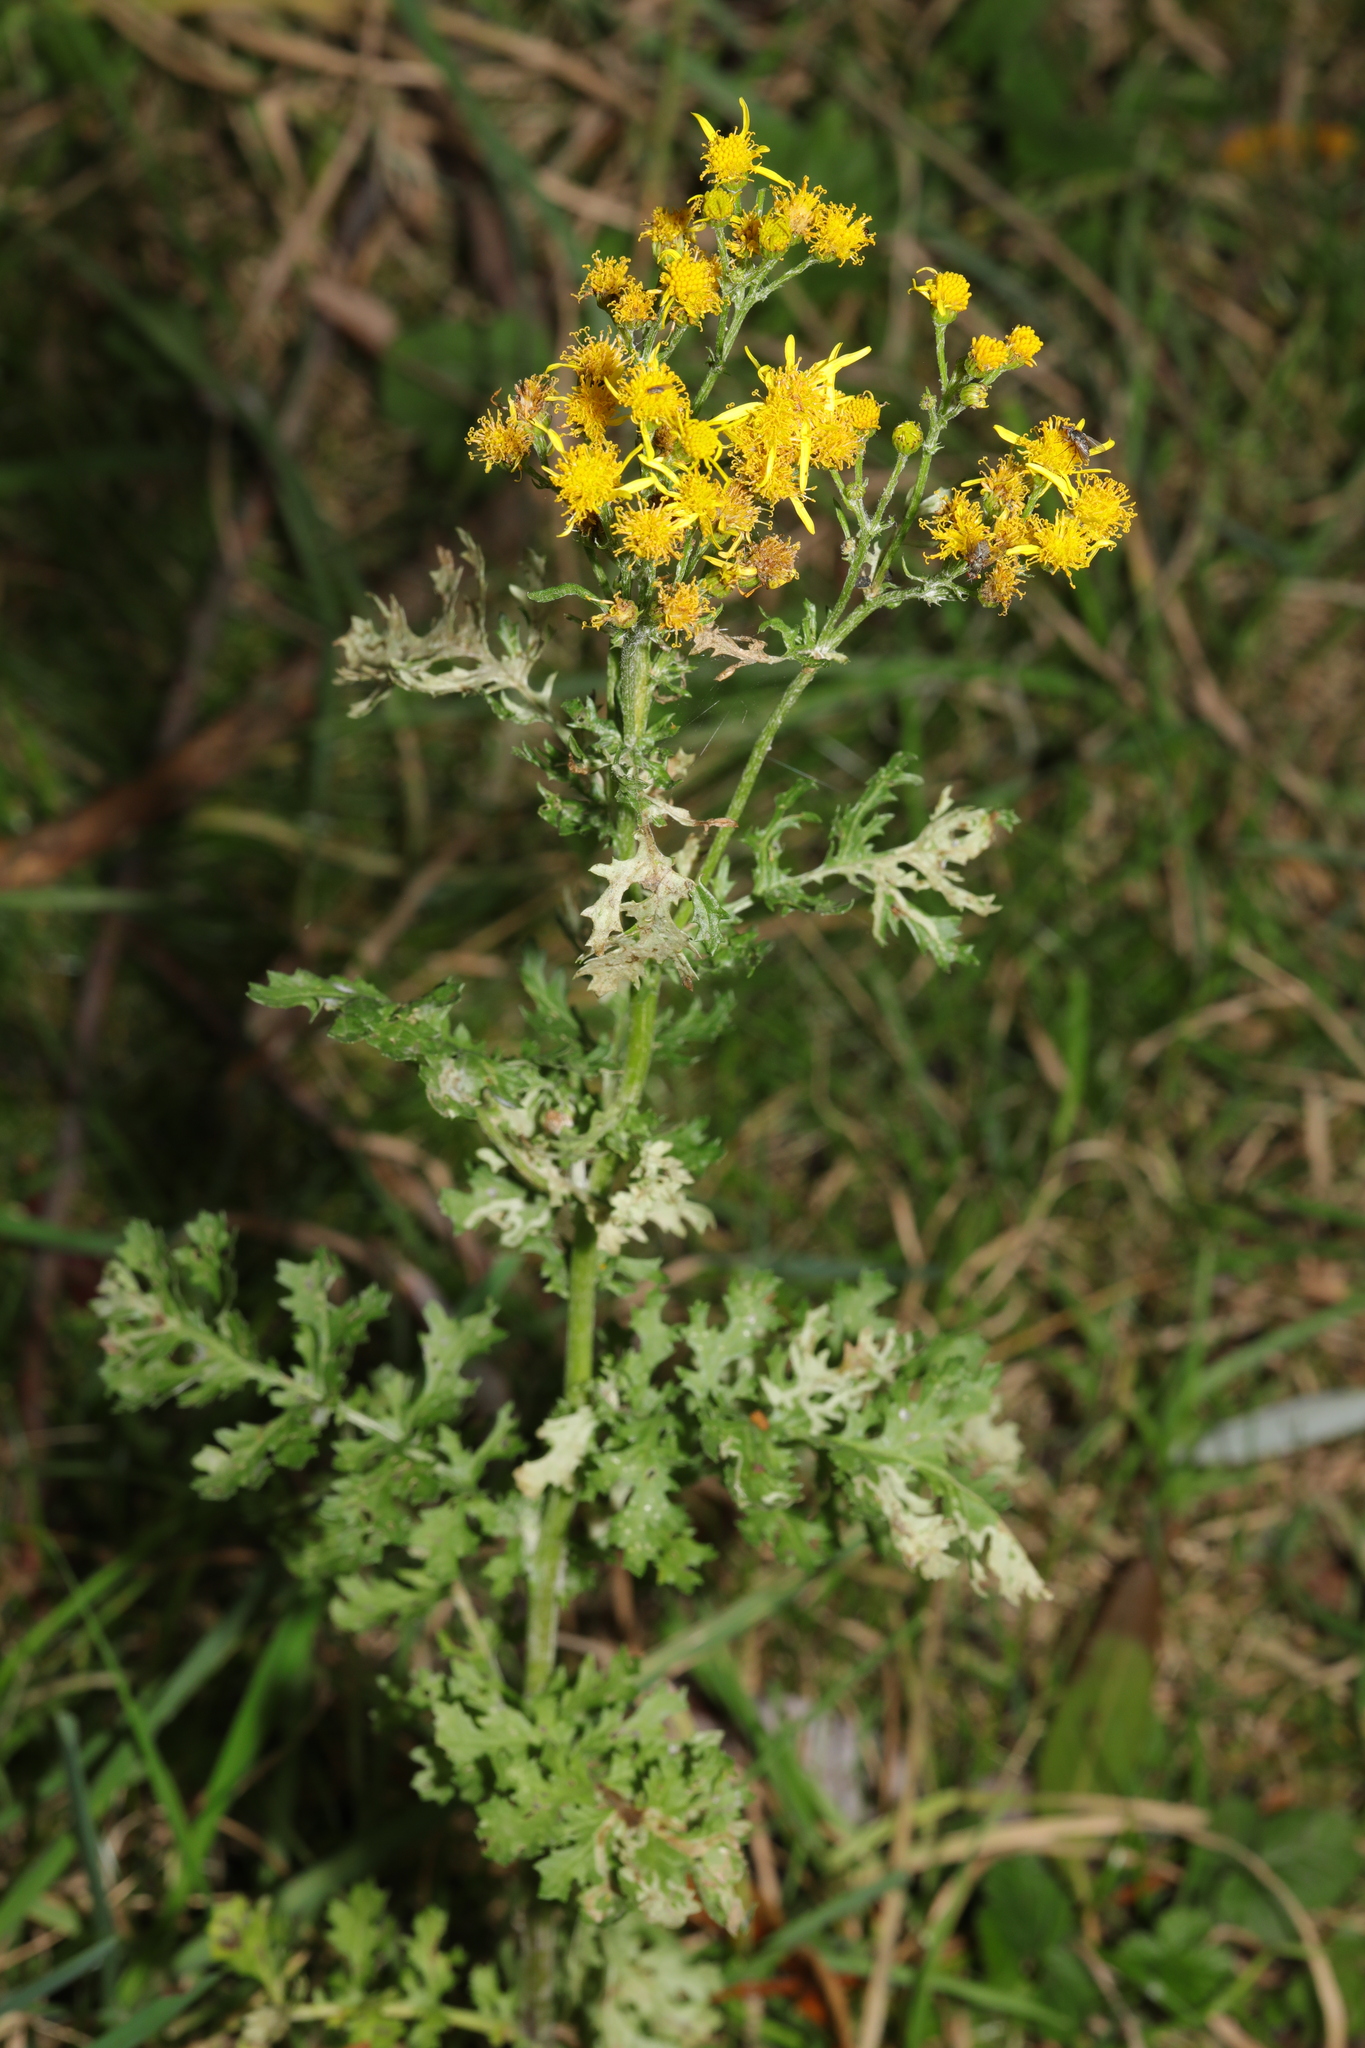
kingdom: Plantae
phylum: Tracheophyta
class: Magnoliopsida
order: Asterales
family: Asteraceae
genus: Jacobaea
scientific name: Jacobaea vulgaris
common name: Stinking willie
